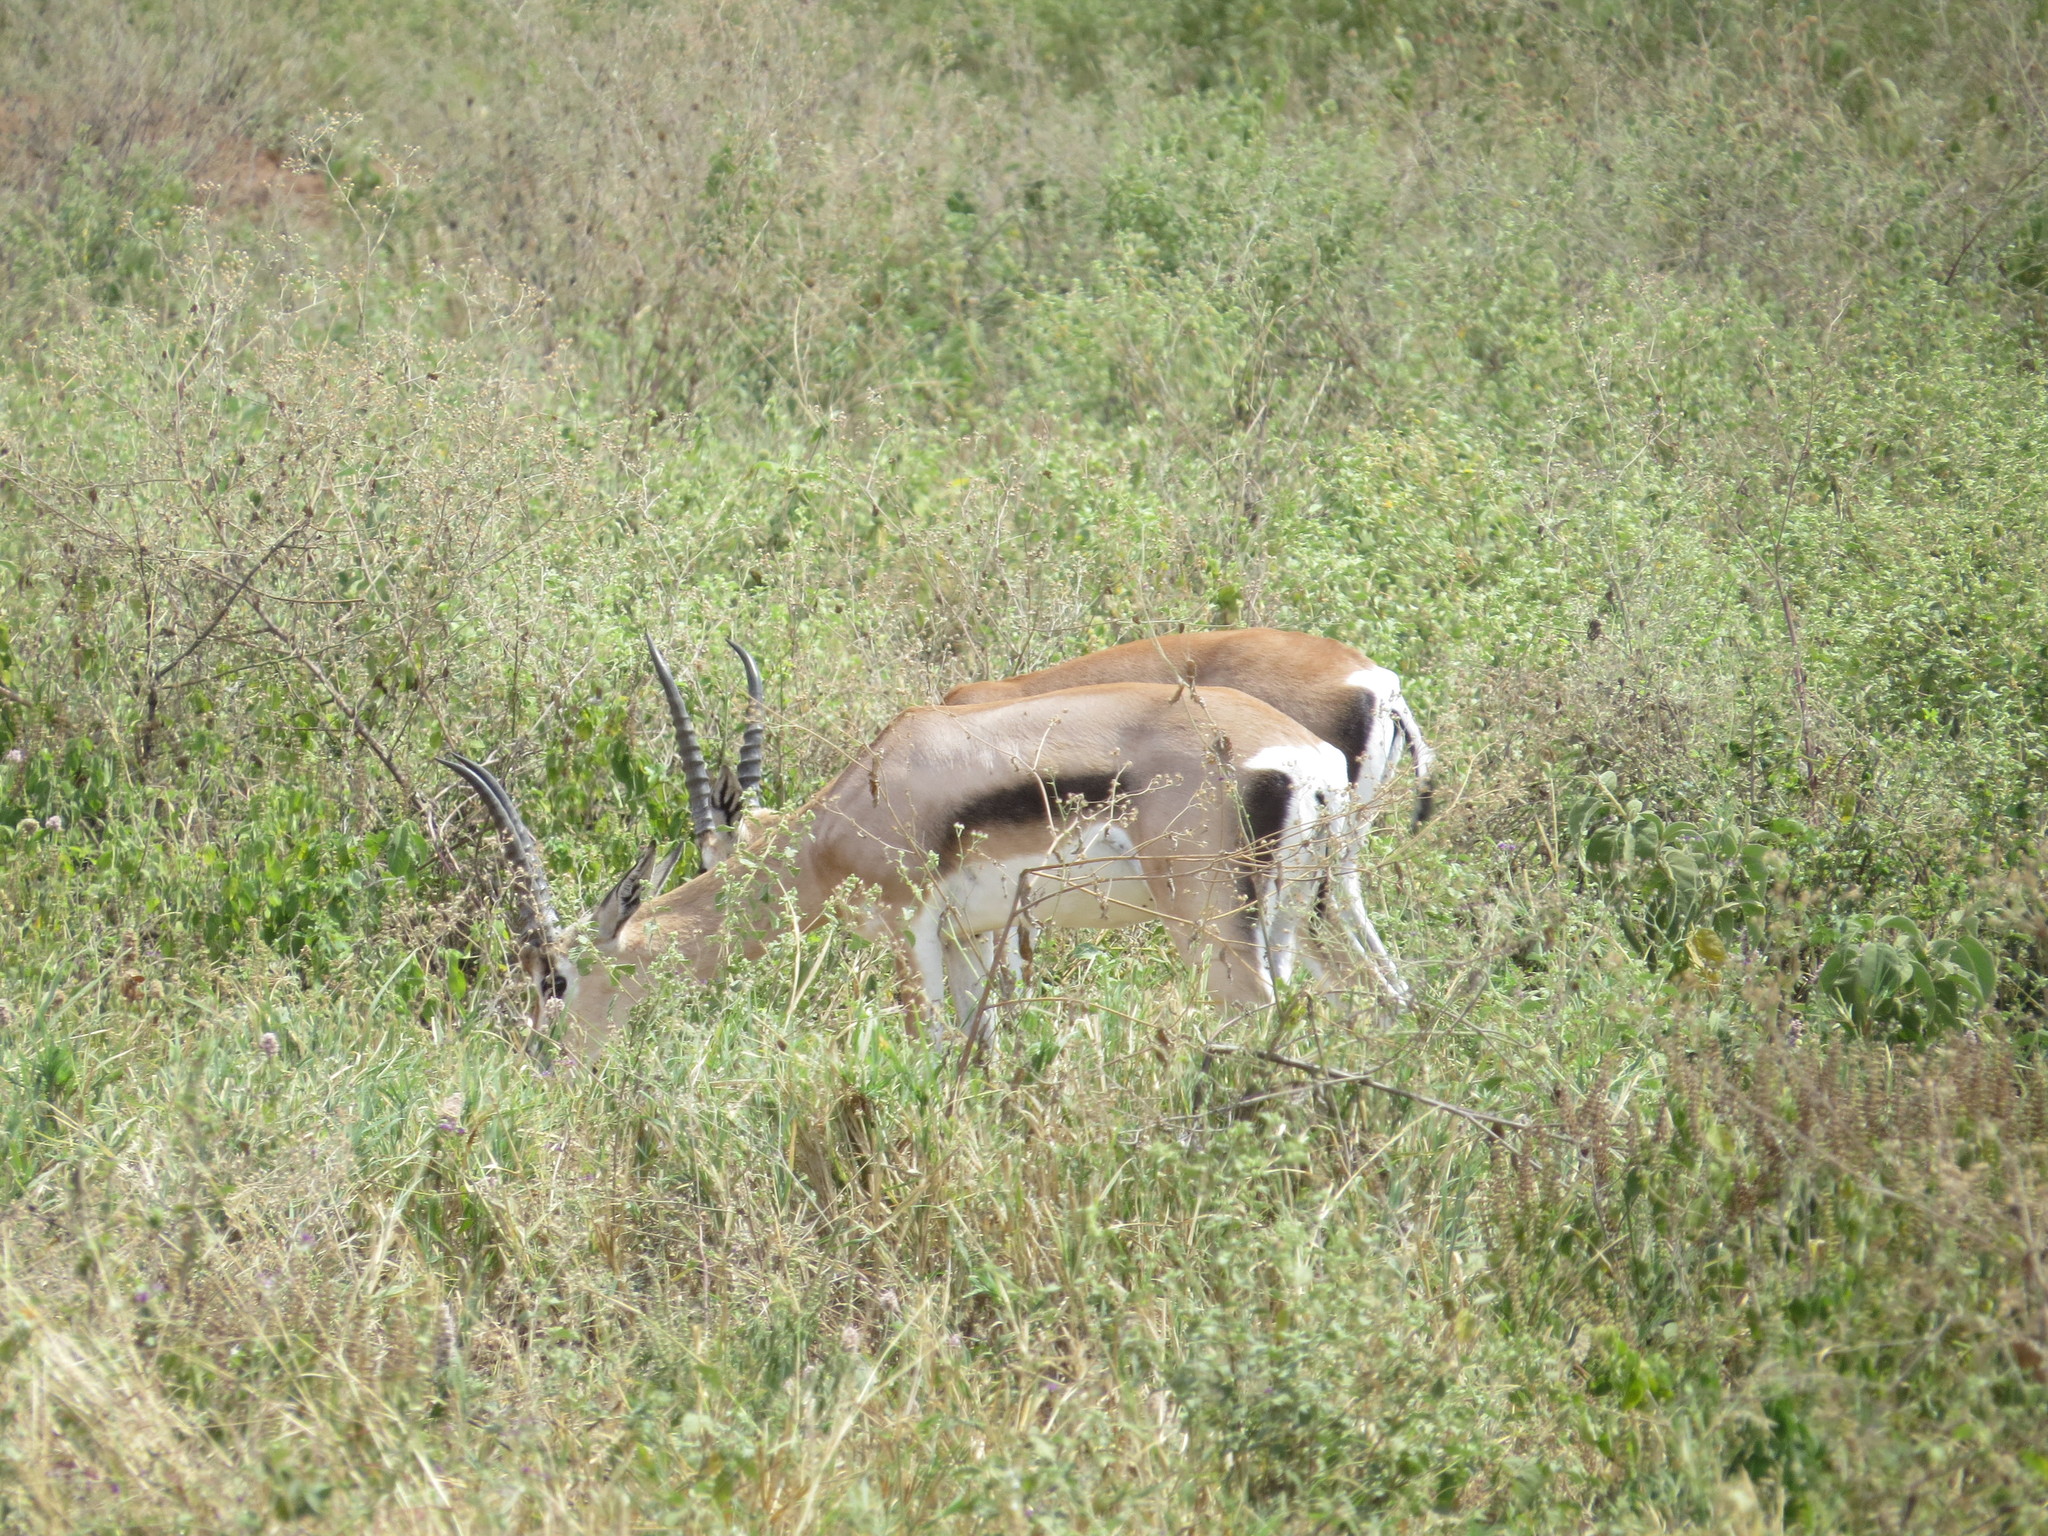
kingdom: Animalia
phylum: Chordata
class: Mammalia
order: Artiodactyla
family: Bovidae
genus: Nanger
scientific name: Nanger granti
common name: Grant's gazelle
